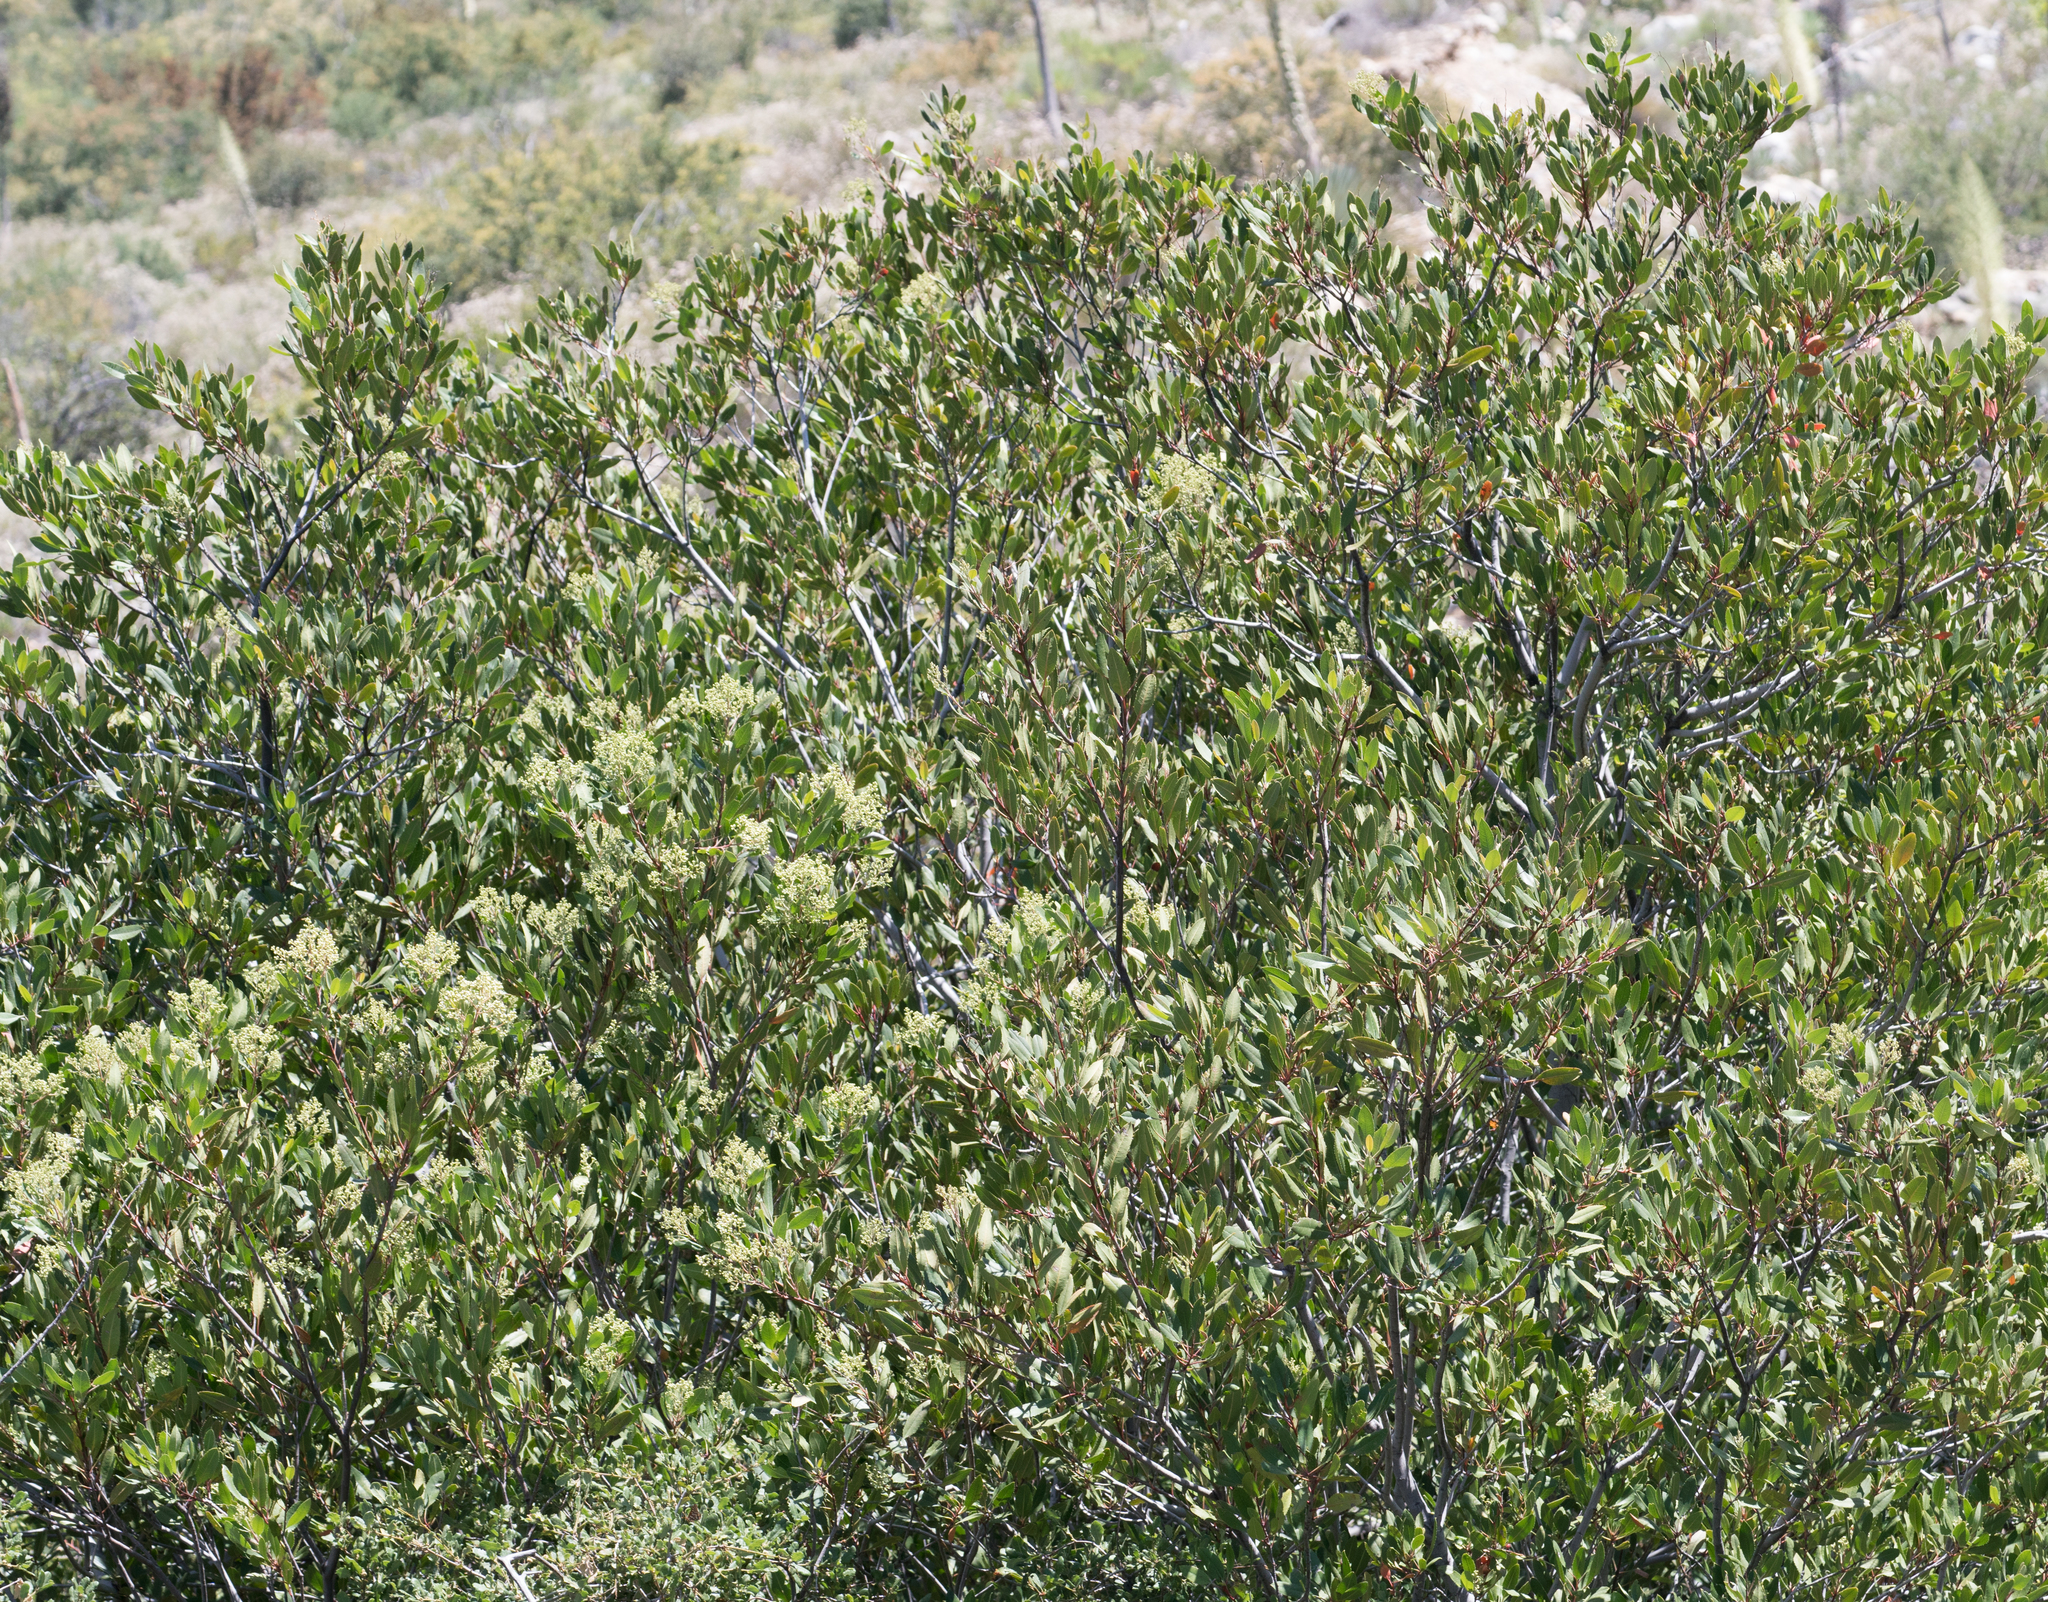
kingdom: Plantae
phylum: Tracheophyta
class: Magnoliopsida
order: Rosales
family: Rosaceae
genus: Heteromeles
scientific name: Heteromeles arbutifolia
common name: California-holly
